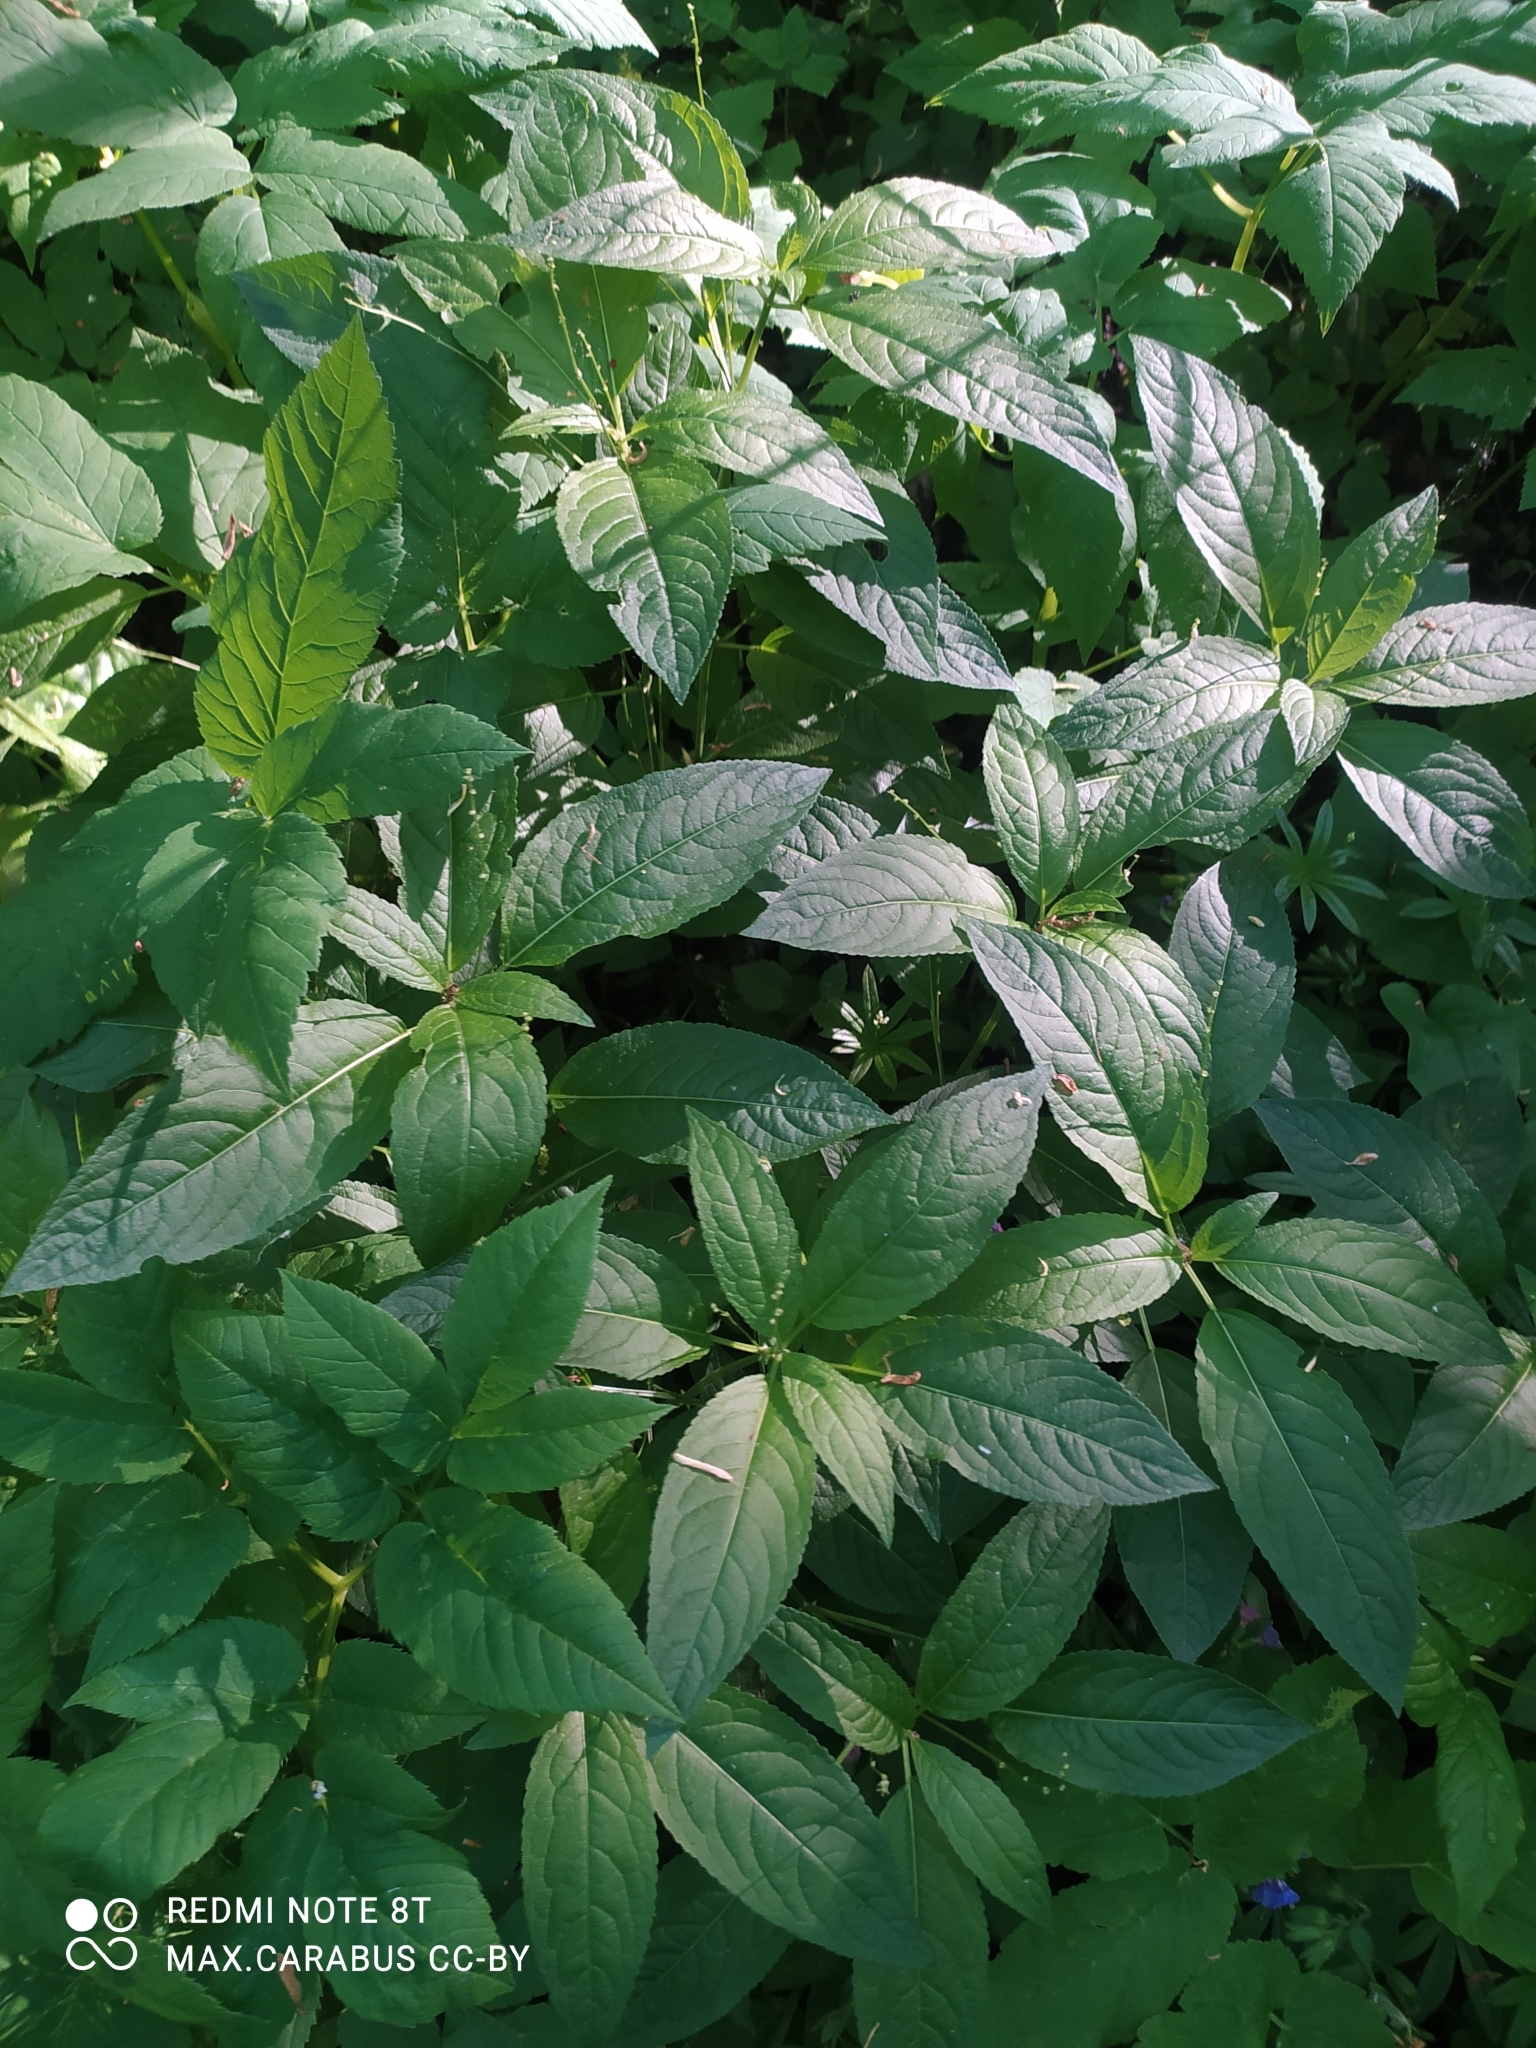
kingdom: Plantae
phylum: Tracheophyta
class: Magnoliopsida
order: Malpighiales
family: Euphorbiaceae
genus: Mercurialis
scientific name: Mercurialis perennis
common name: Dog mercury
